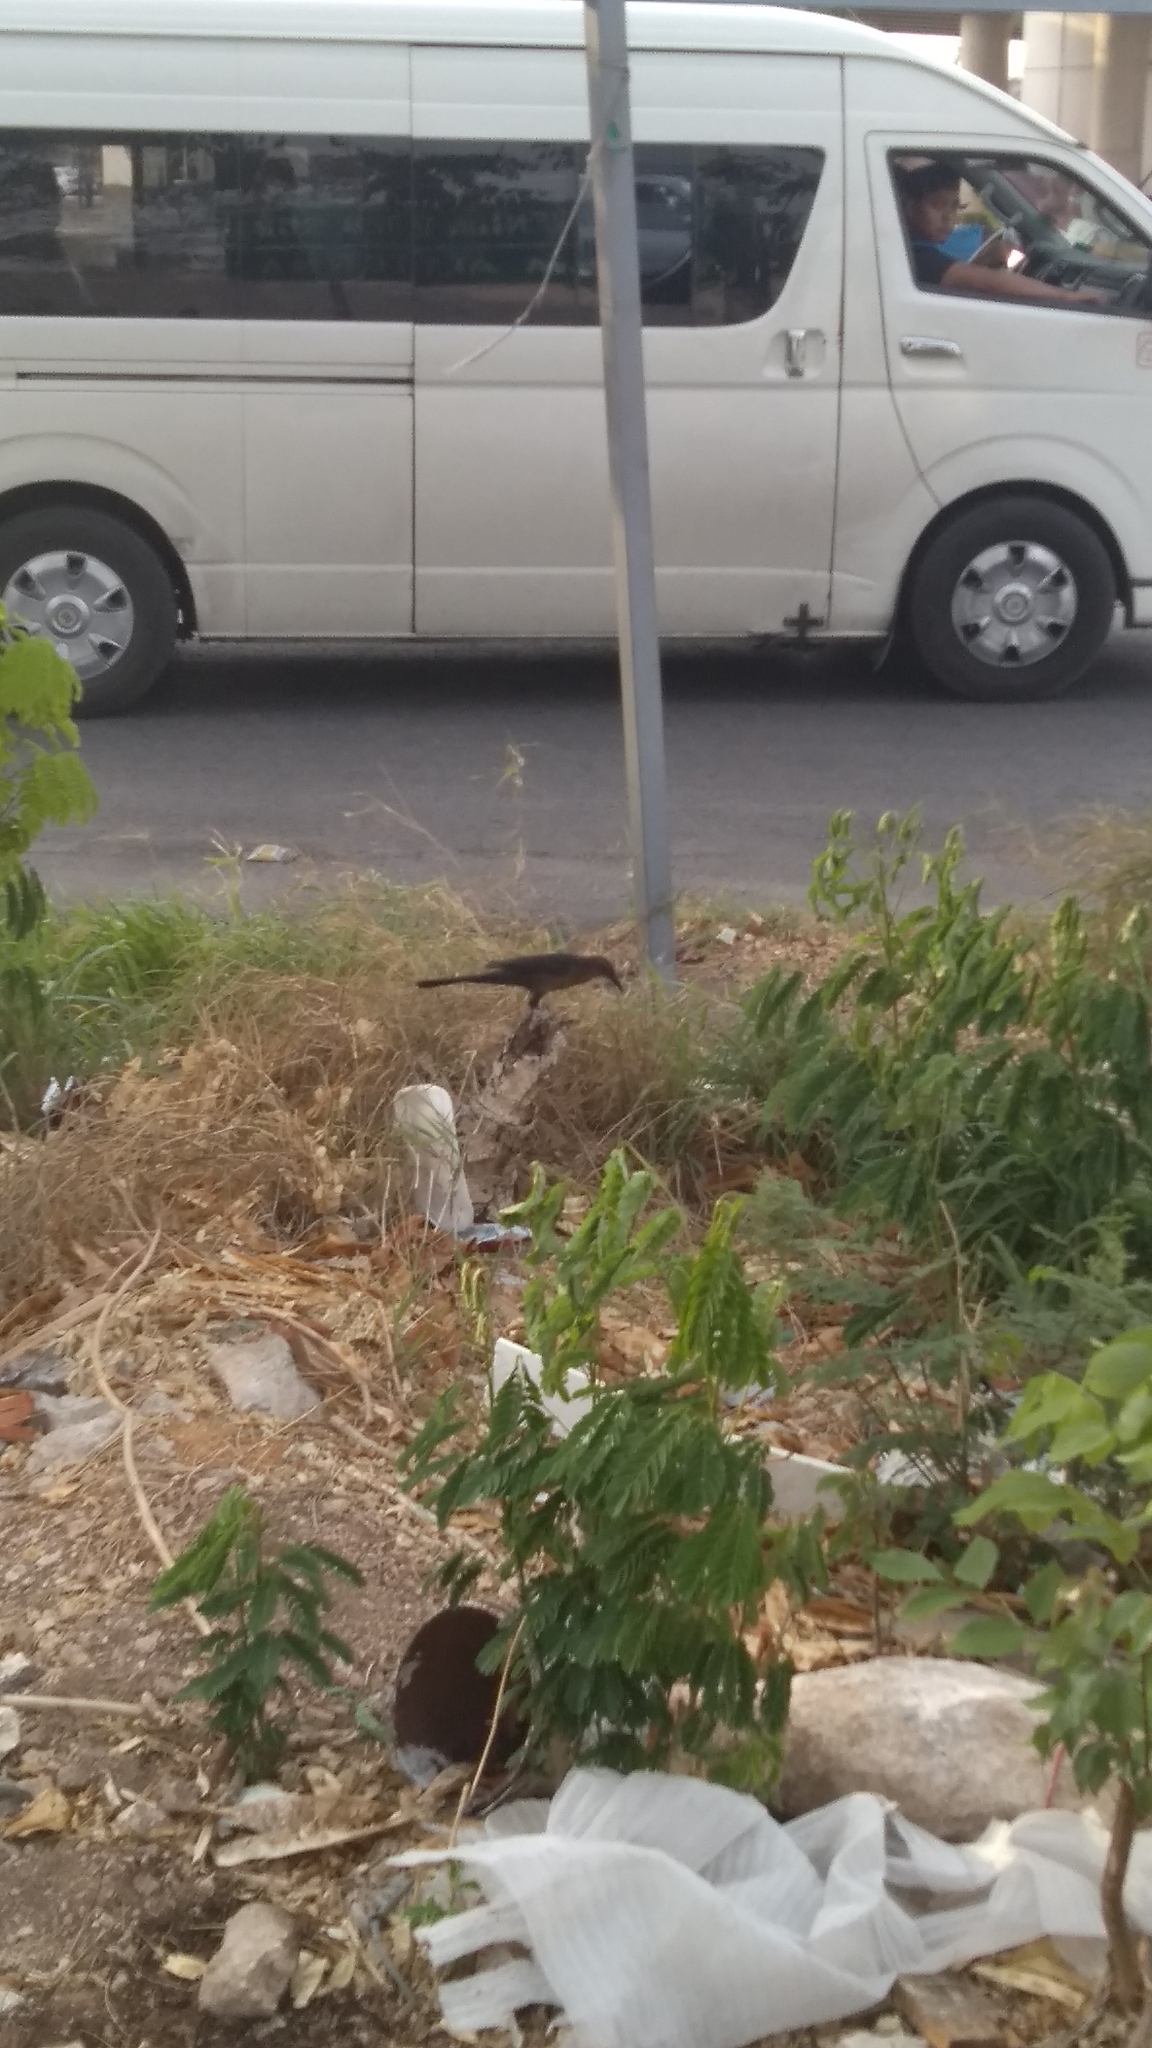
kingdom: Animalia
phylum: Chordata
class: Aves
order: Passeriformes
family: Icteridae
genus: Quiscalus
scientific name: Quiscalus mexicanus
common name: Great-tailed grackle
